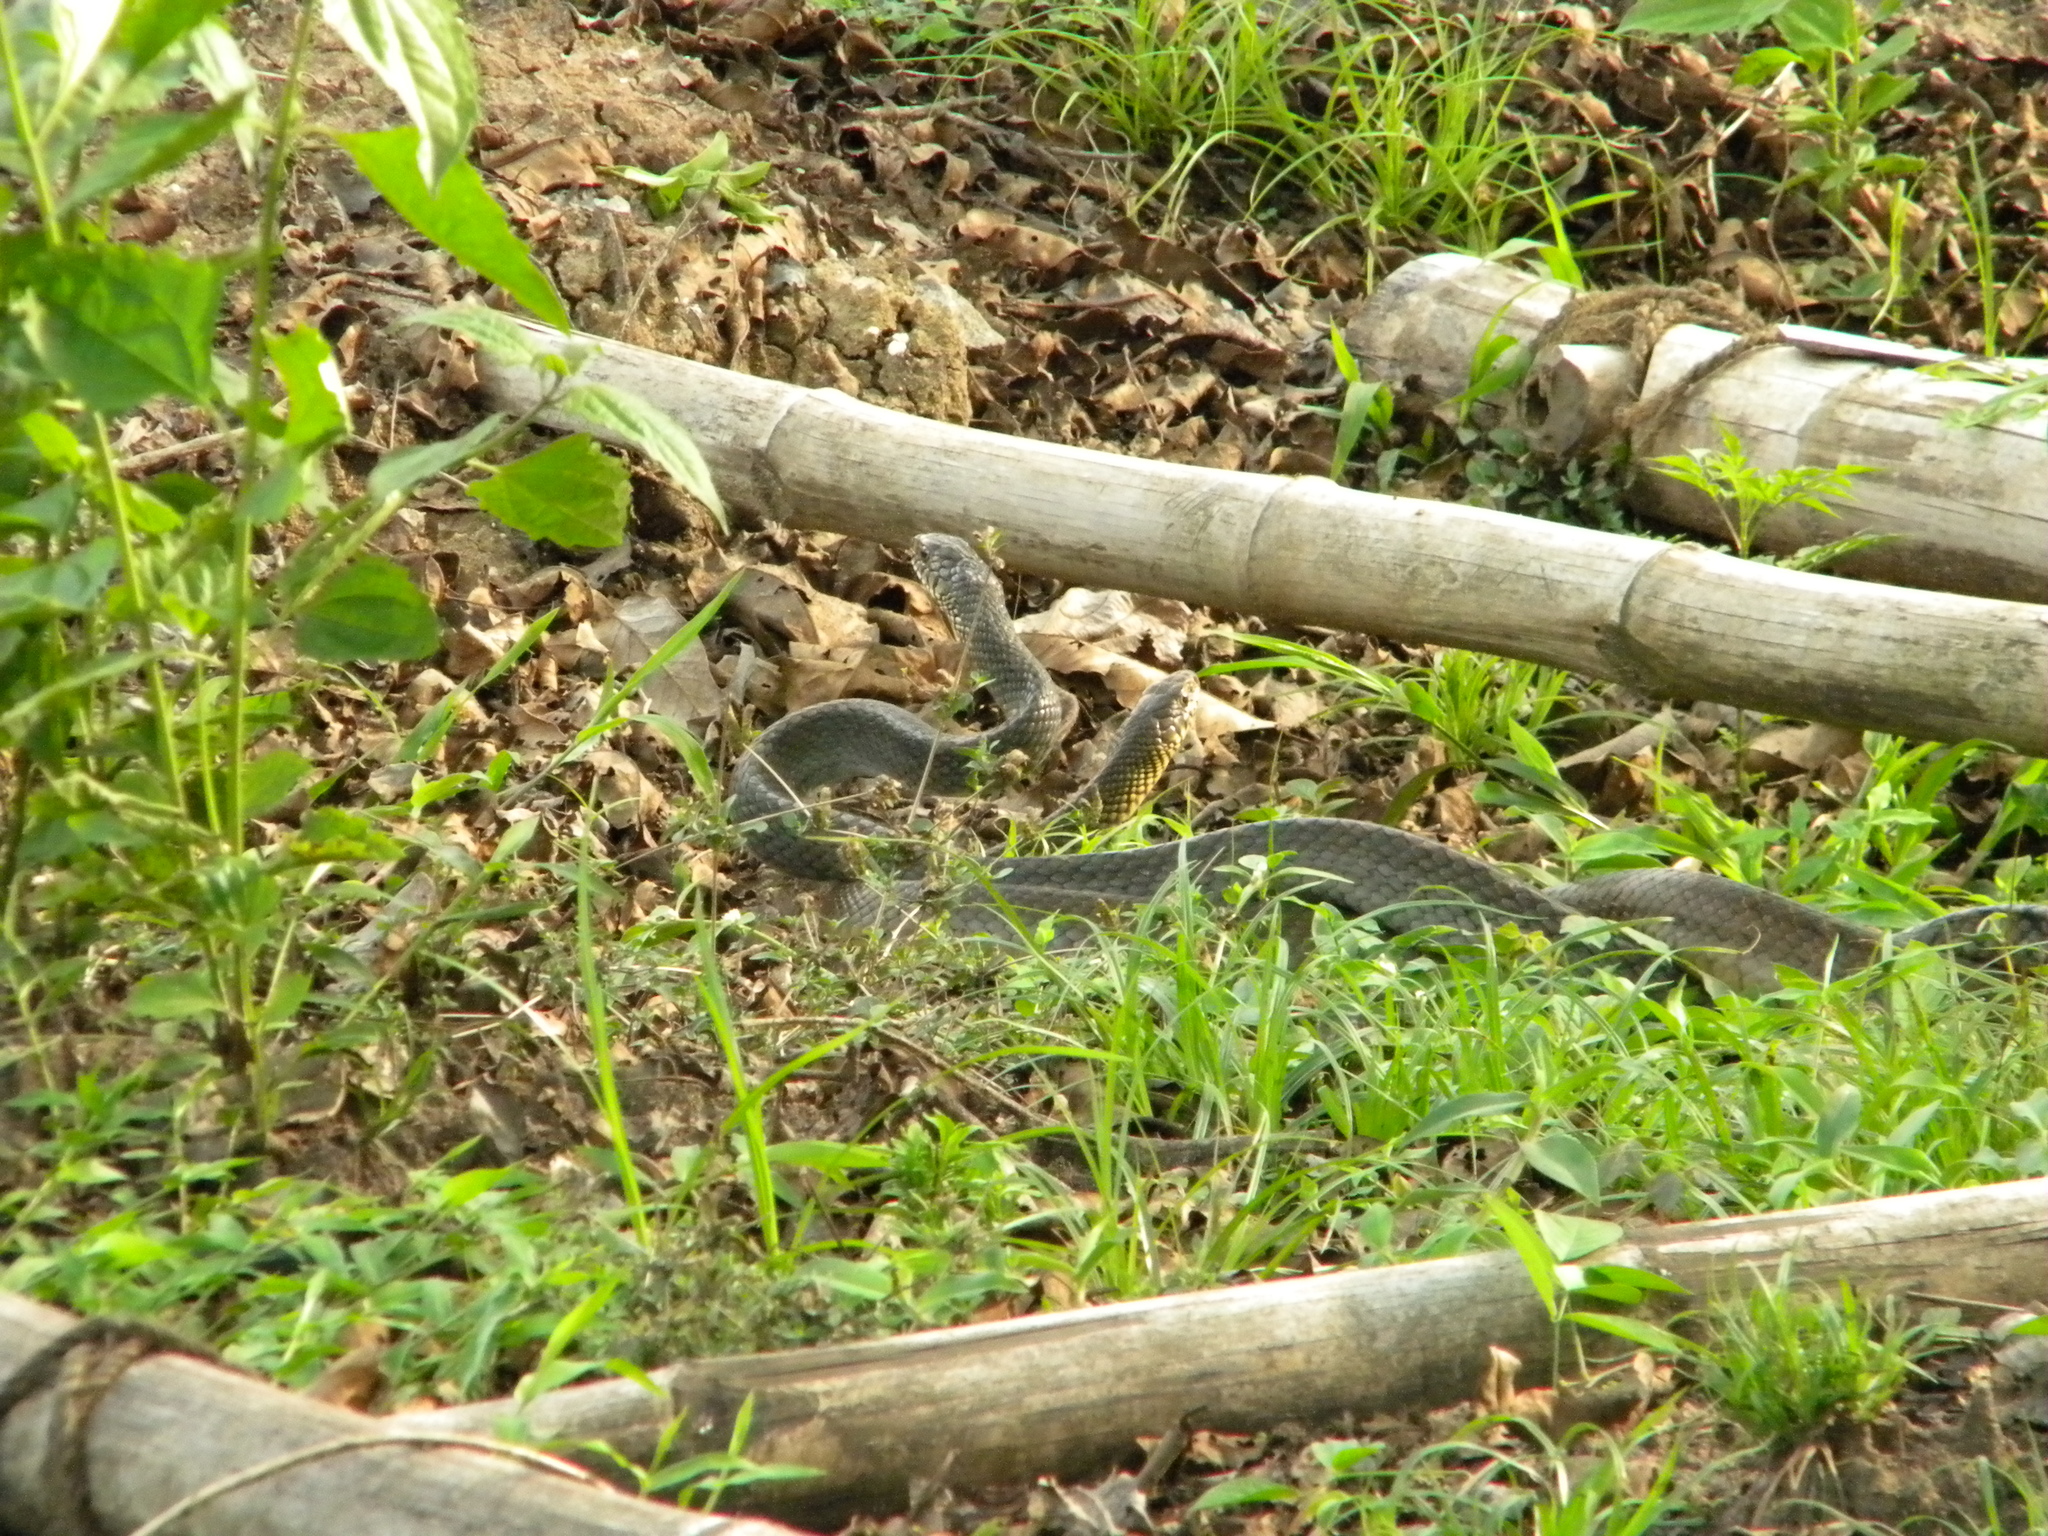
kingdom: Animalia
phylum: Chordata
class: Squamata
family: Colubridae
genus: Ptyas
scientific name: Ptyas mucosa
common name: Oriental ratsnake
